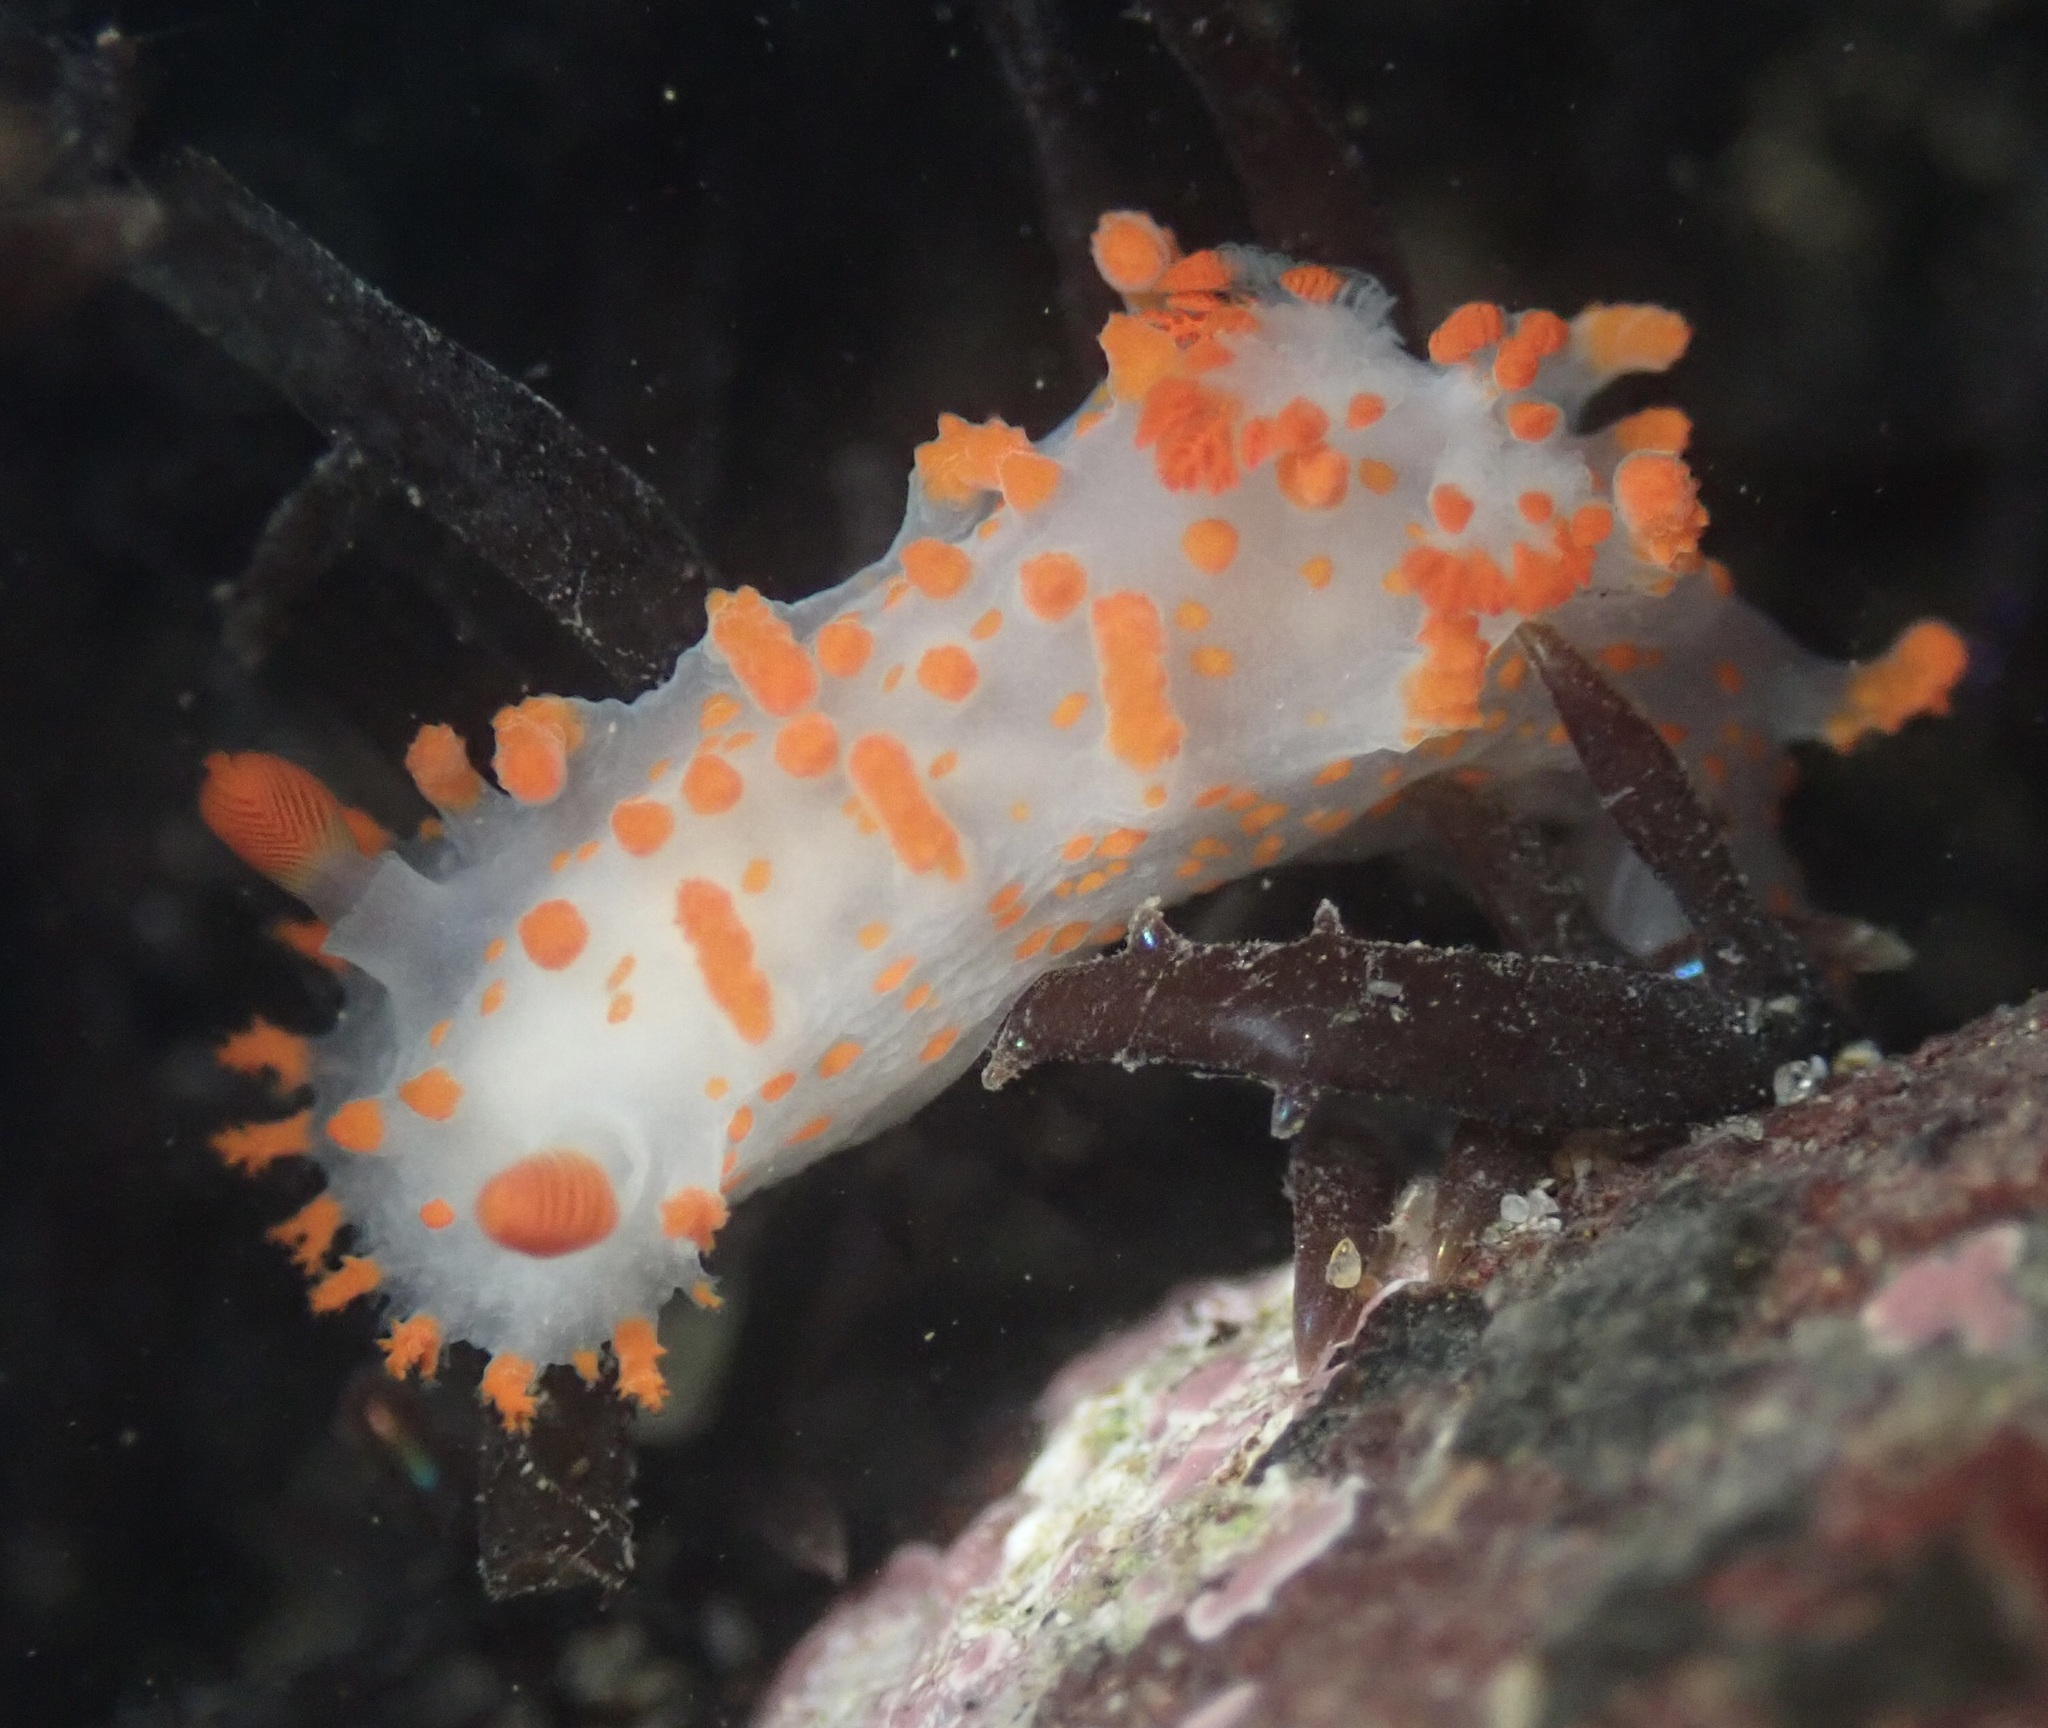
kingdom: Animalia
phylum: Mollusca
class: Gastropoda
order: Nudibranchia
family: Polyceridae
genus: Triopha
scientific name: Triopha catalinae
